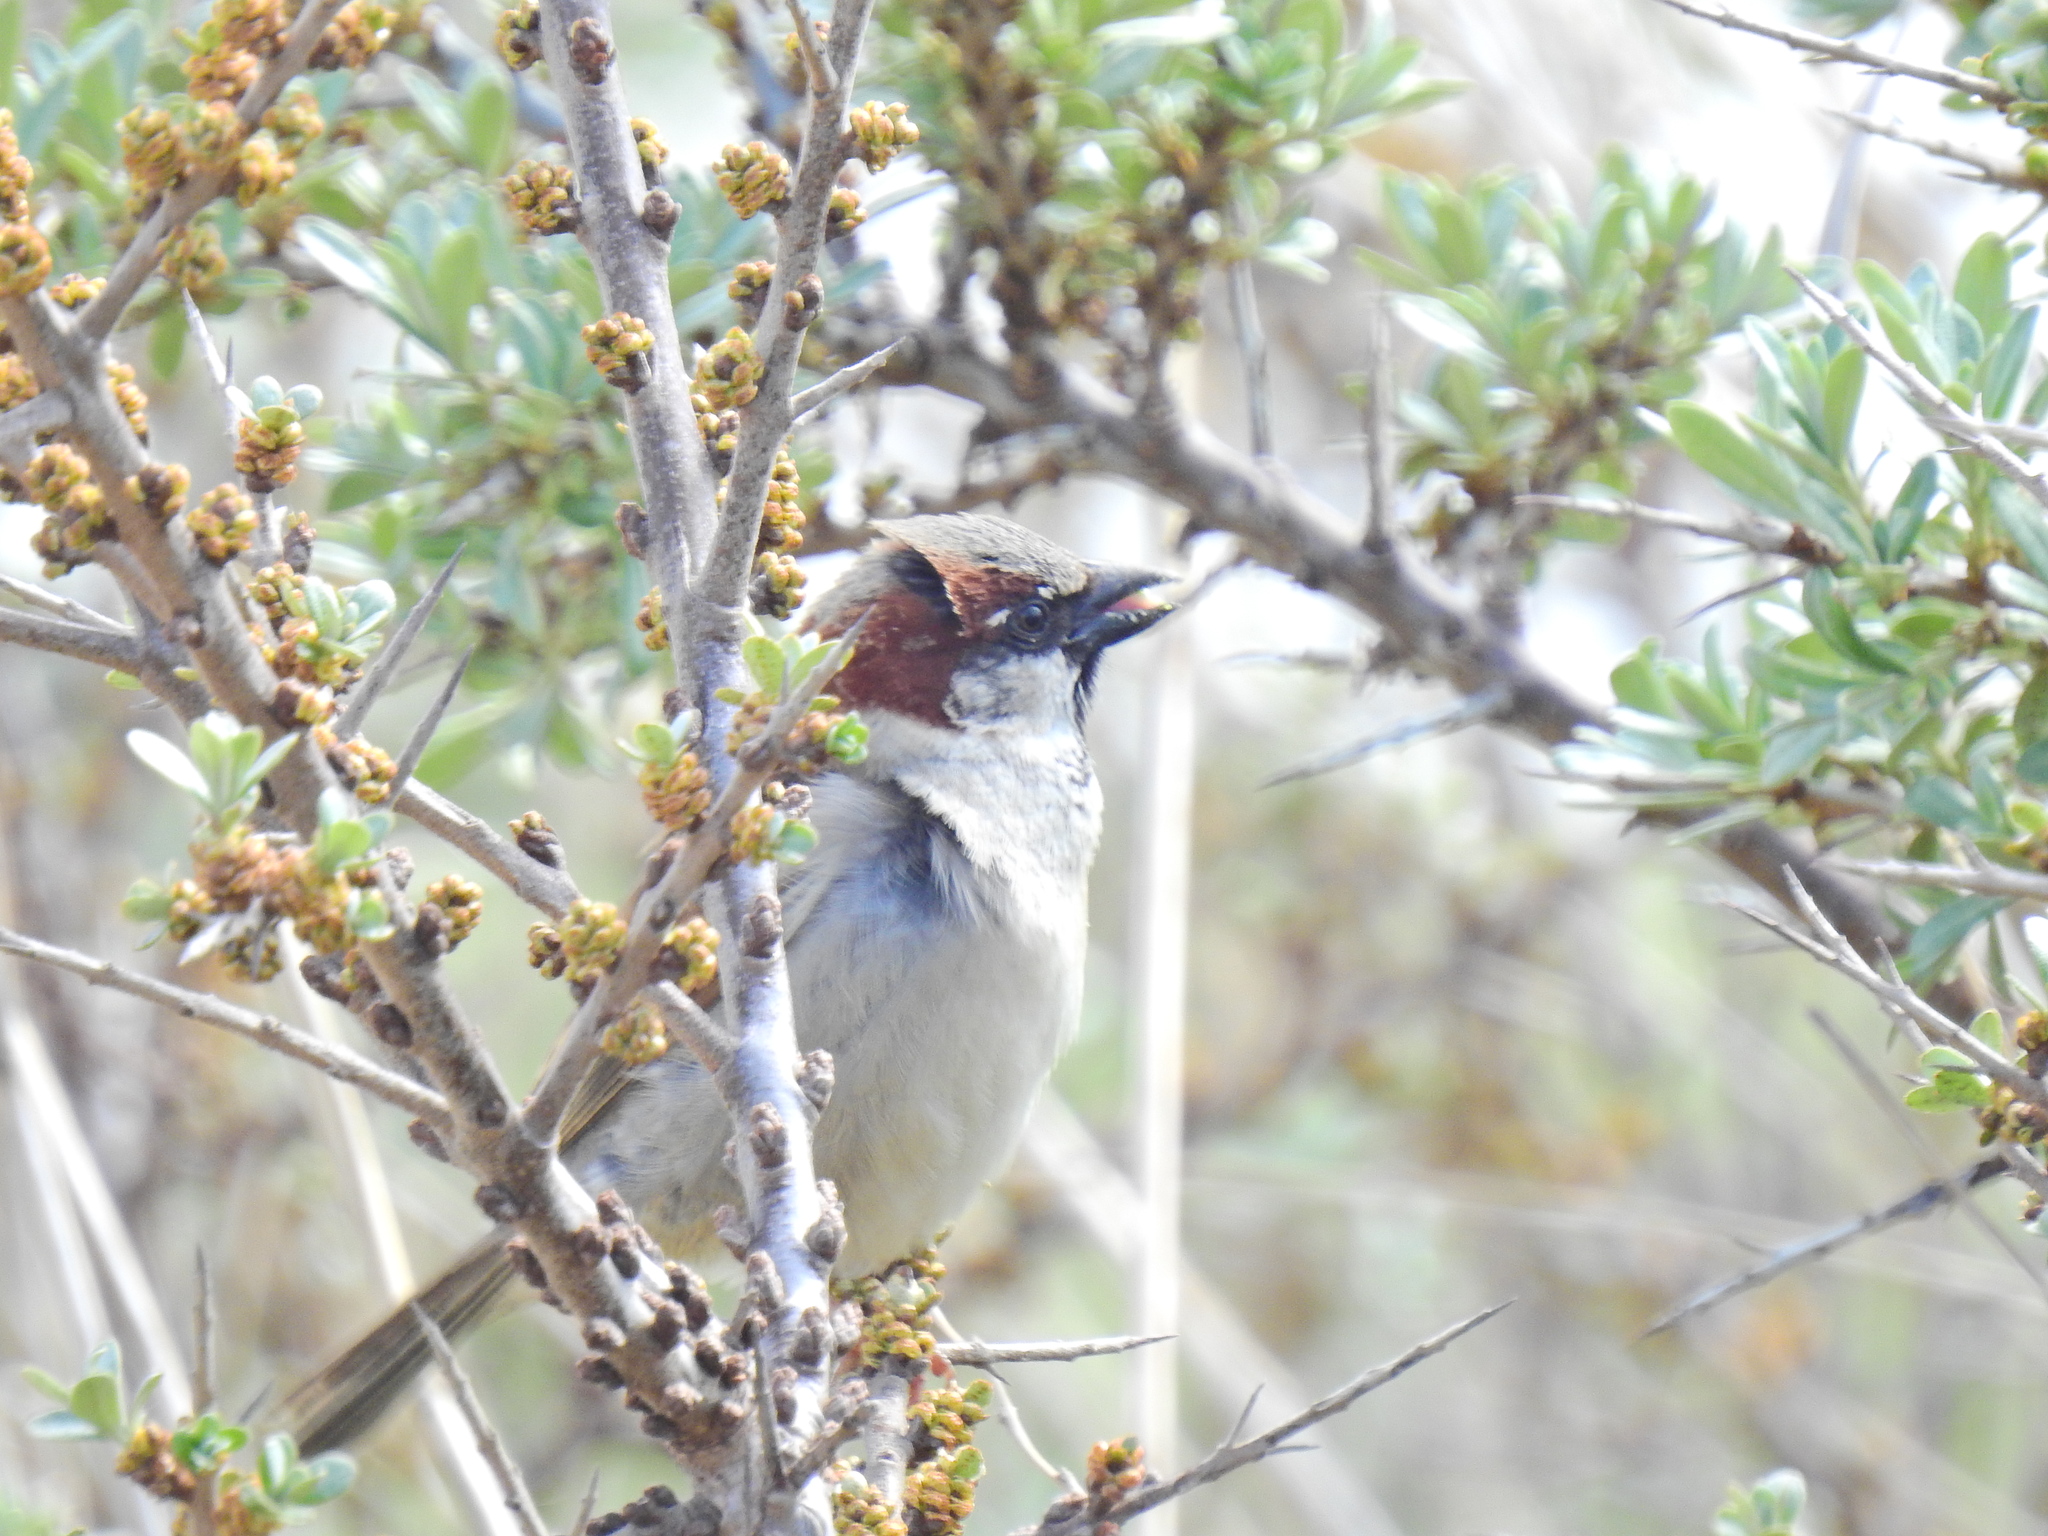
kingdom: Animalia
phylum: Chordata
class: Aves
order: Passeriformes
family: Passeridae
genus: Passer
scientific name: Passer domesticus
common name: House sparrow
